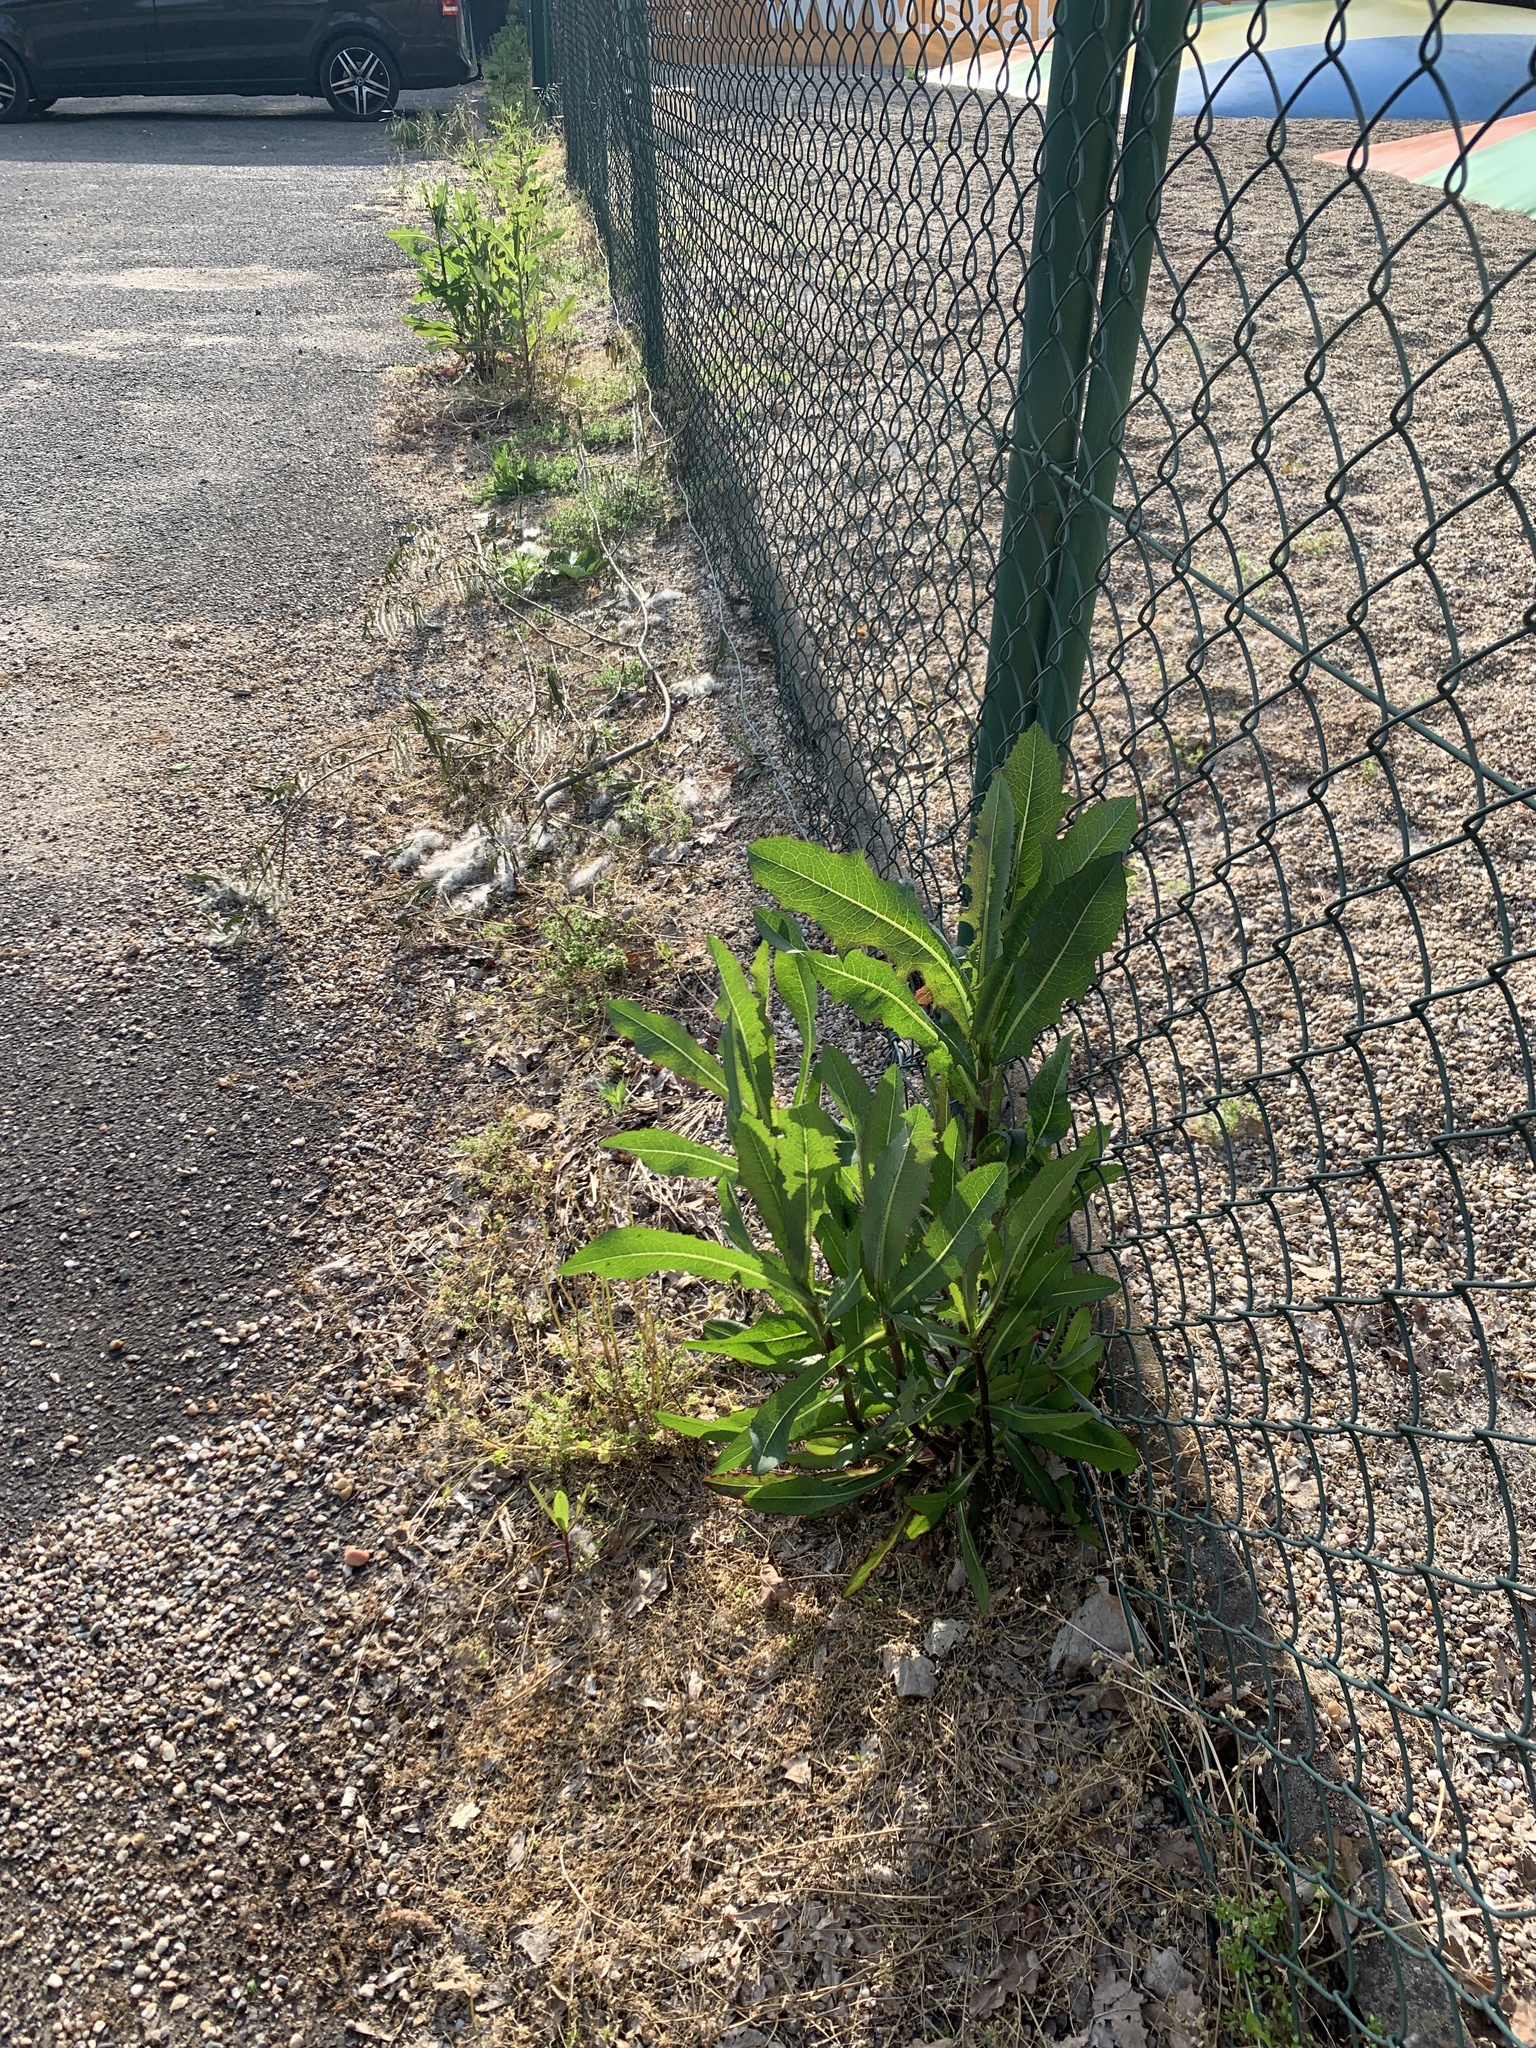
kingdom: Plantae
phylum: Tracheophyta
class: Magnoliopsida
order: Asterales
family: Asteraceae
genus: Lactuca
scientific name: Lactuca serriola
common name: Prickly lettuce
